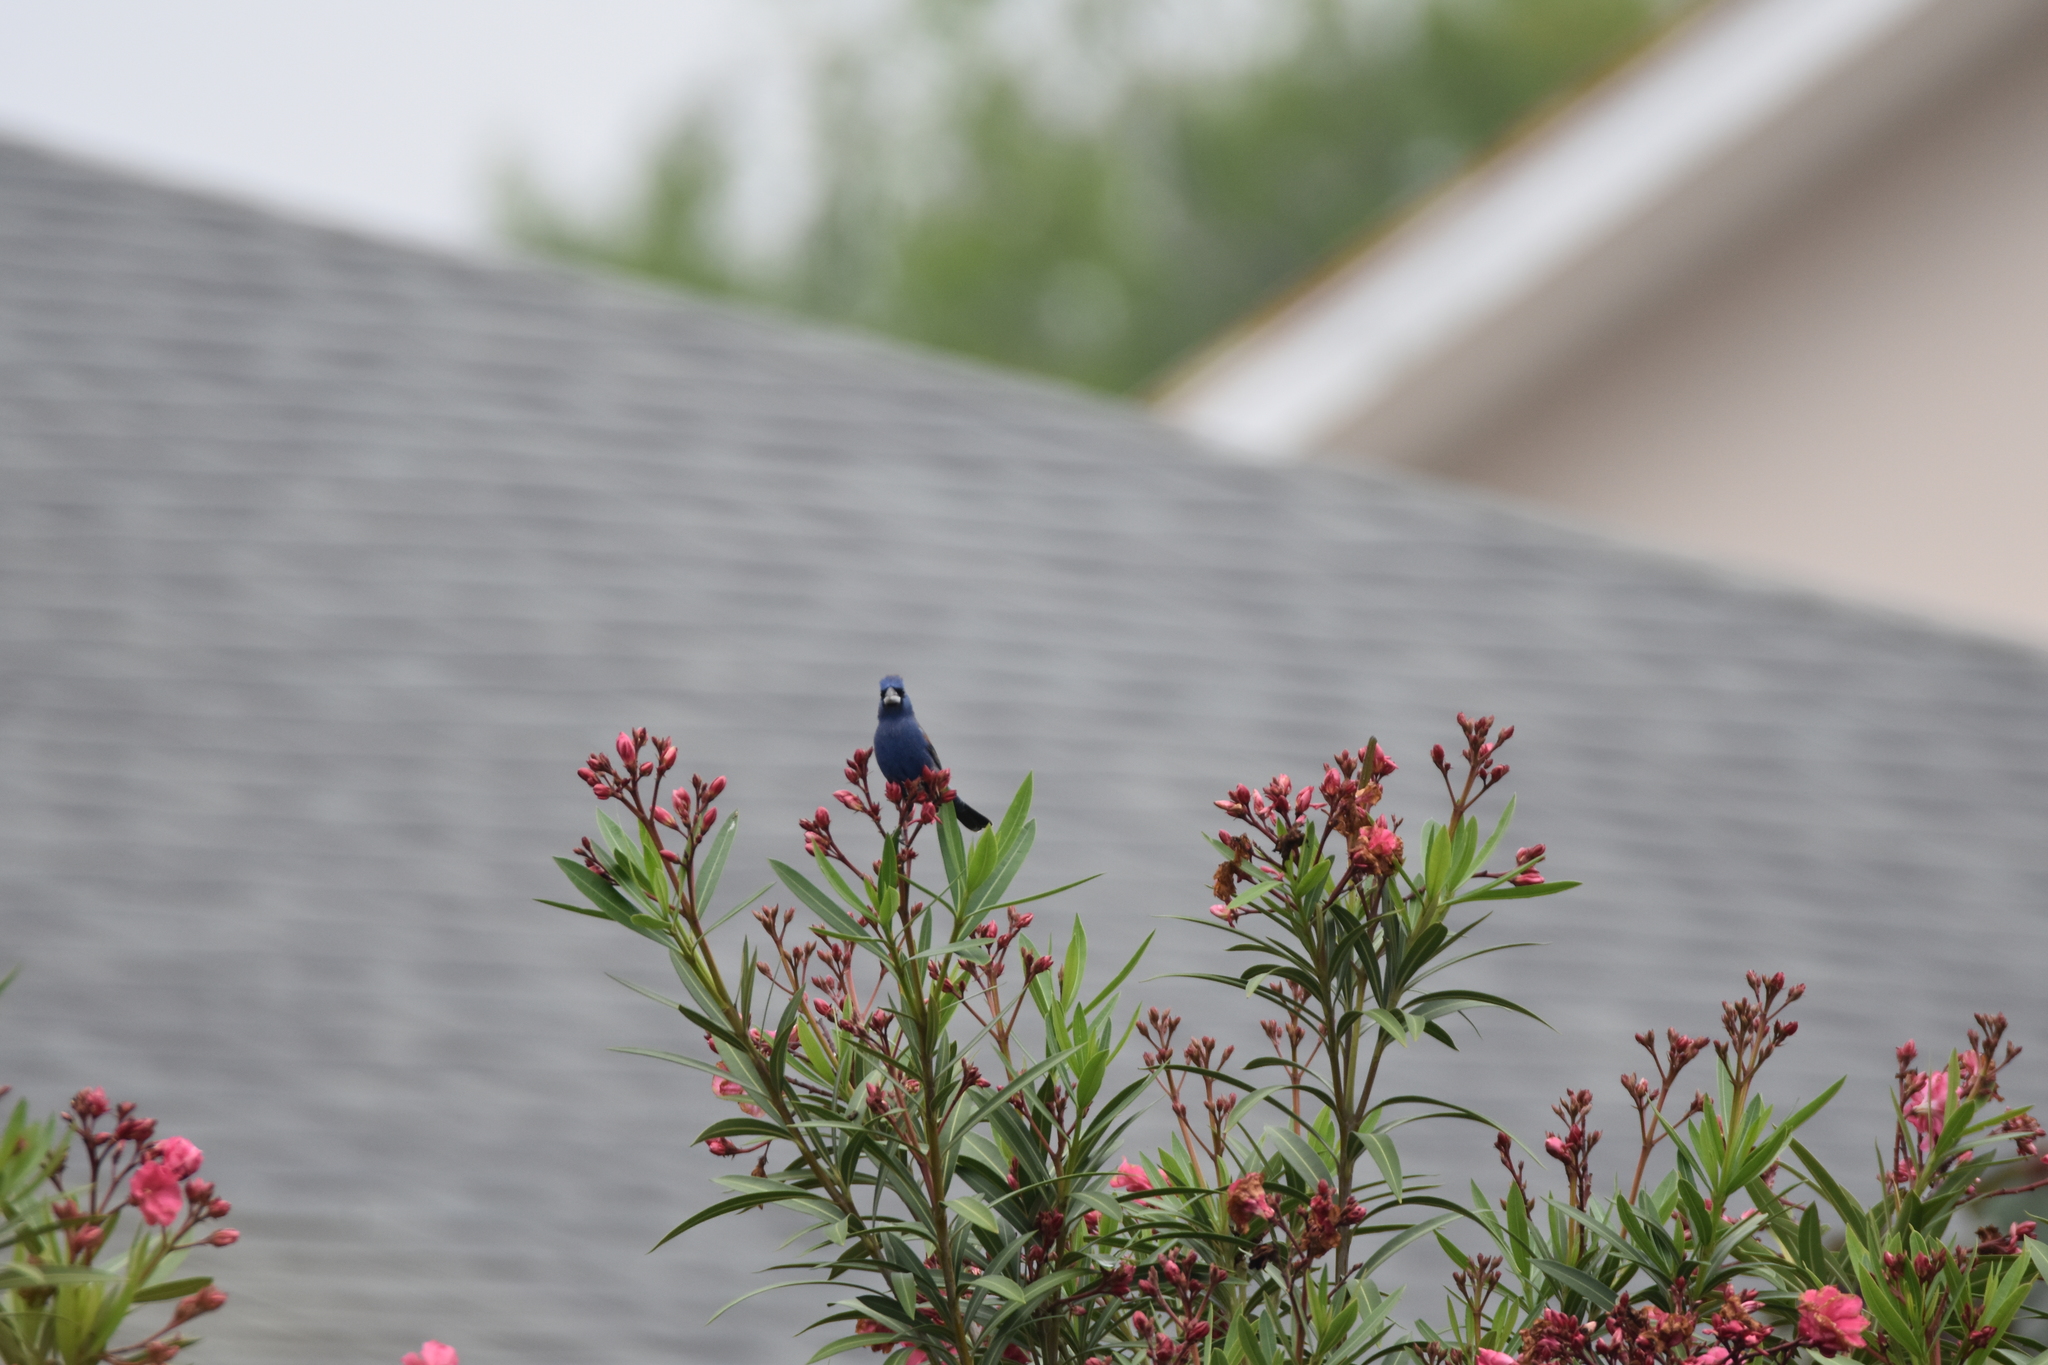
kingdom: Animalia
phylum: Chordata
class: Aves
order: Passeriformes
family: Cardinalidae
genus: Passerina
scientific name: Passerina caerulea
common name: Blue grosbeak
